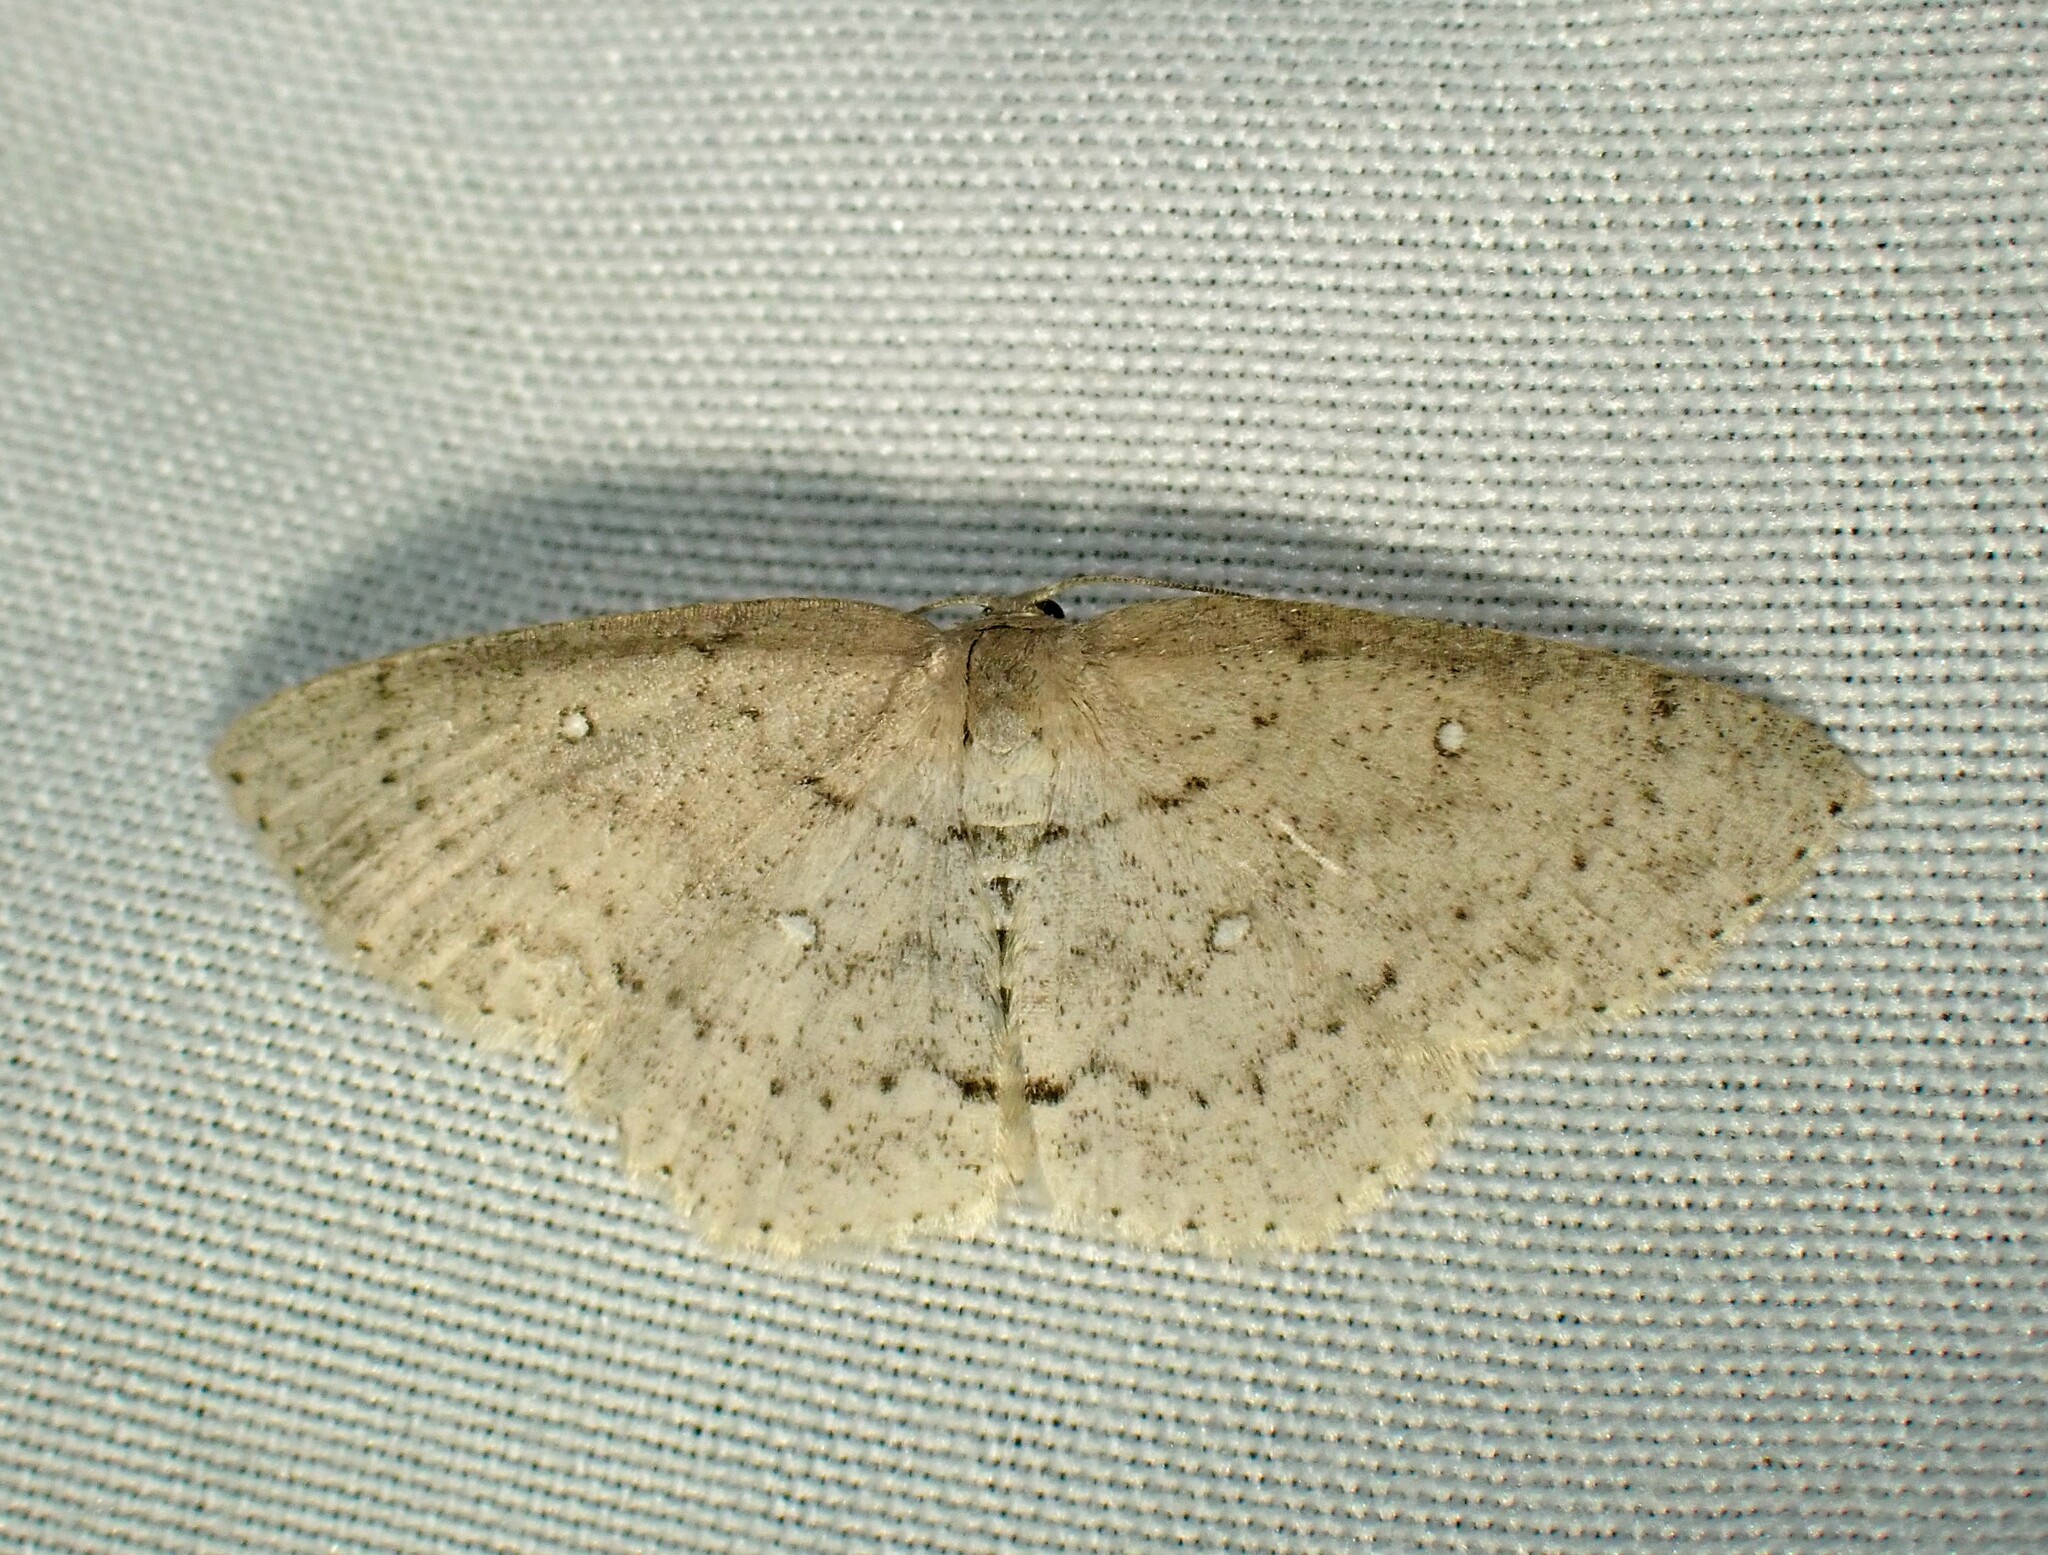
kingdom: Animalia
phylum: Arthropoda
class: Insecta
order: Lepidoptera
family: Geometridae
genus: Cyclophora
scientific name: Cyclophora pendulinaria
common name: Sweet fern geometer
